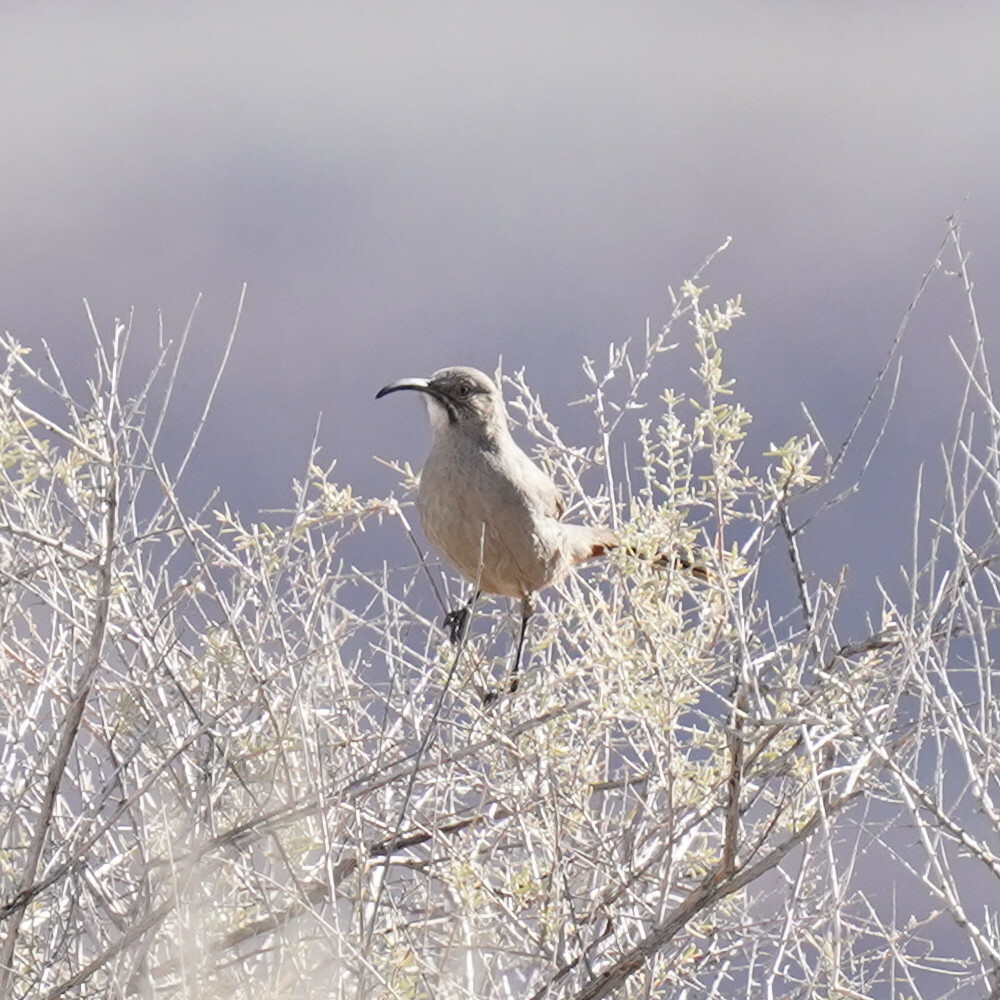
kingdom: Animalia
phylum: Chordata
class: Aves
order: Passeriformes
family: Mimidae
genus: Toxostoma
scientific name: Toxostoma crissale
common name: Crissal thrasher
